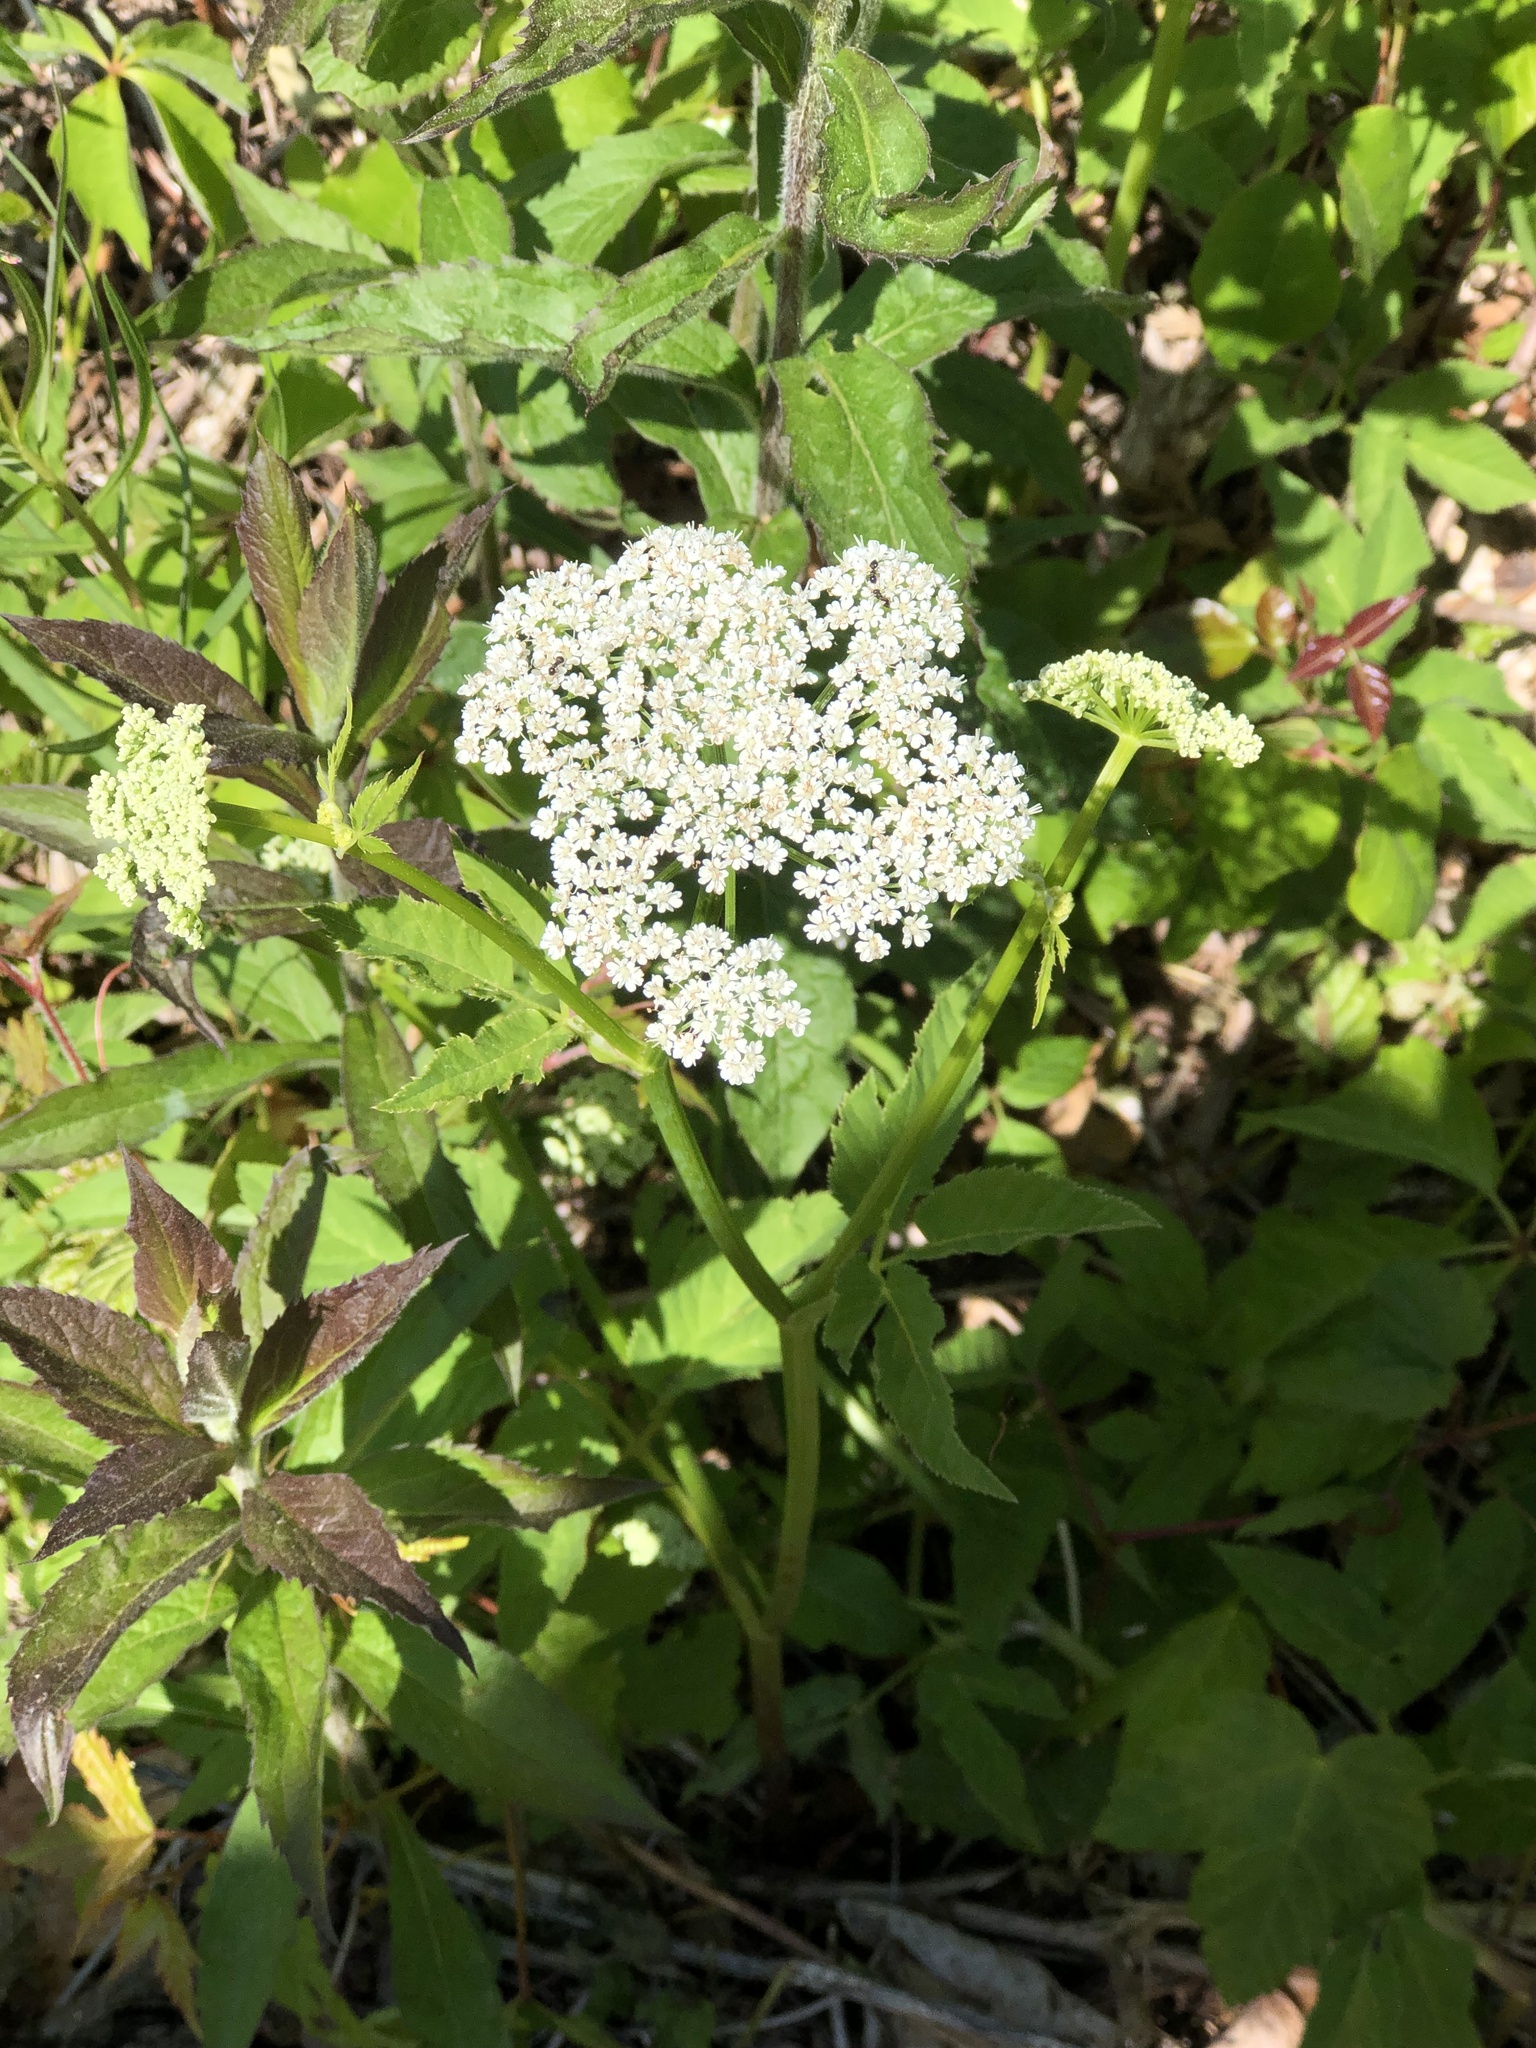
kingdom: Plantae
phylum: Tracheophyta
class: Magnoliopsida
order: Apiales
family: Apiaceae
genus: Aegopodium
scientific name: Aegopodium podagraria
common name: Ground-elder
